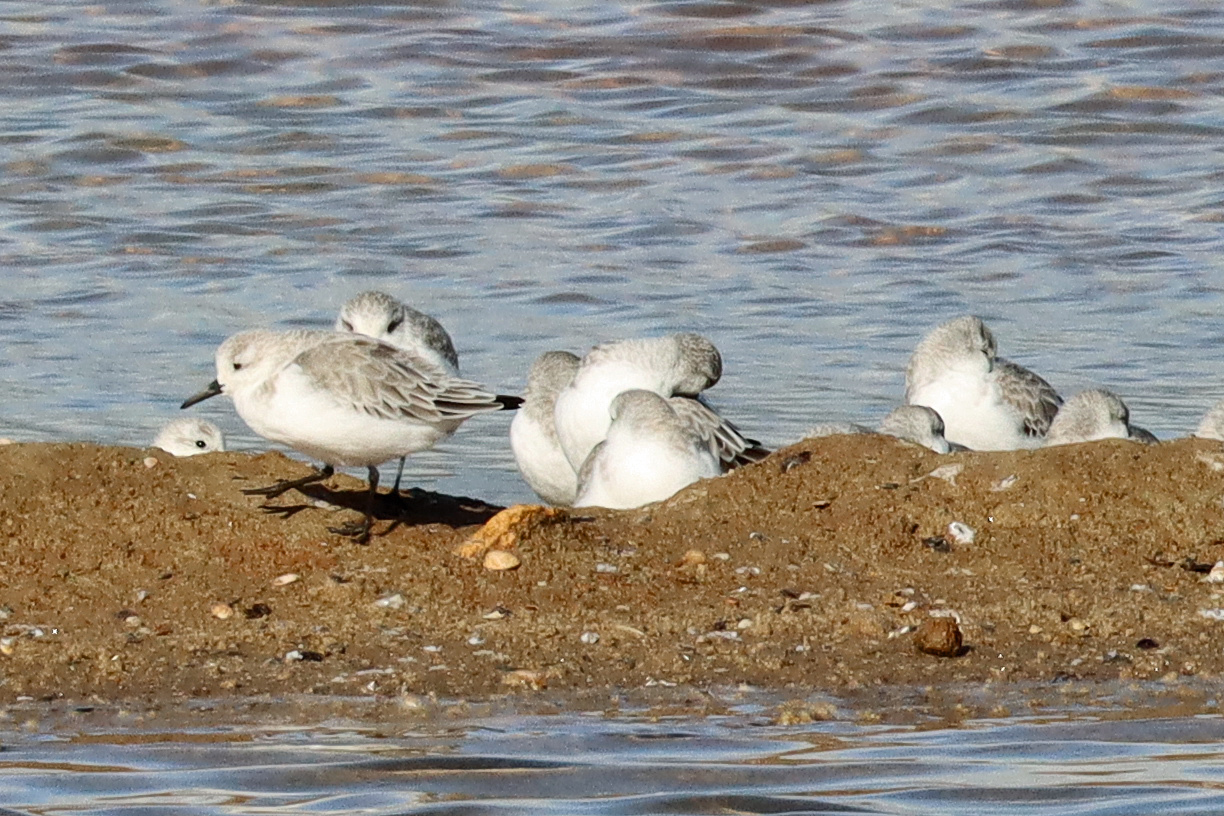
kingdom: Animalia
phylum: Chordata
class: Aves
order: Charadriiformes
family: Scolopacidae
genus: Calidris
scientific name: Calidris alba
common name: Sanderling
